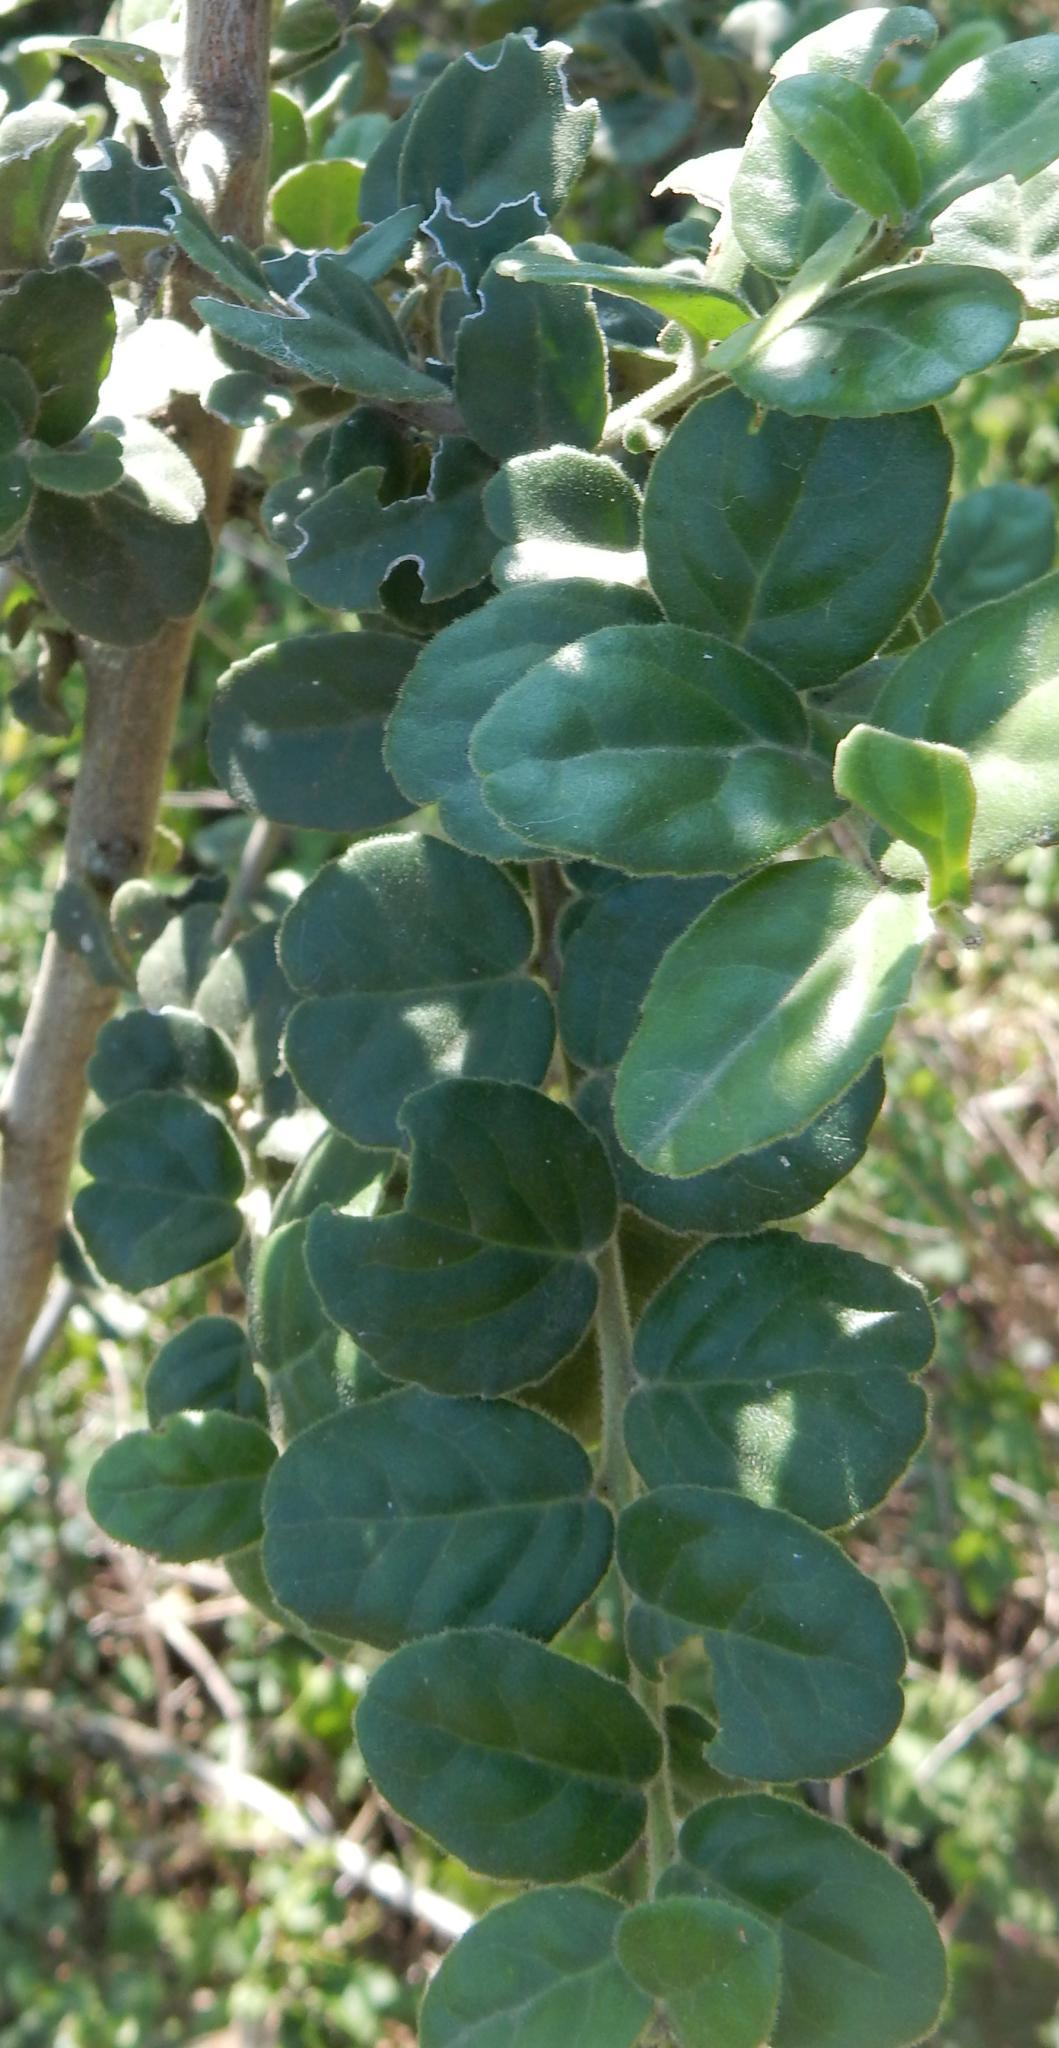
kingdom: Plantae
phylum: Tracheophyta
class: Magnoliopsida
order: Celastrales
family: Celastraceae
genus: Mystroxylon
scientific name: Mystroxylon aethiopicum
